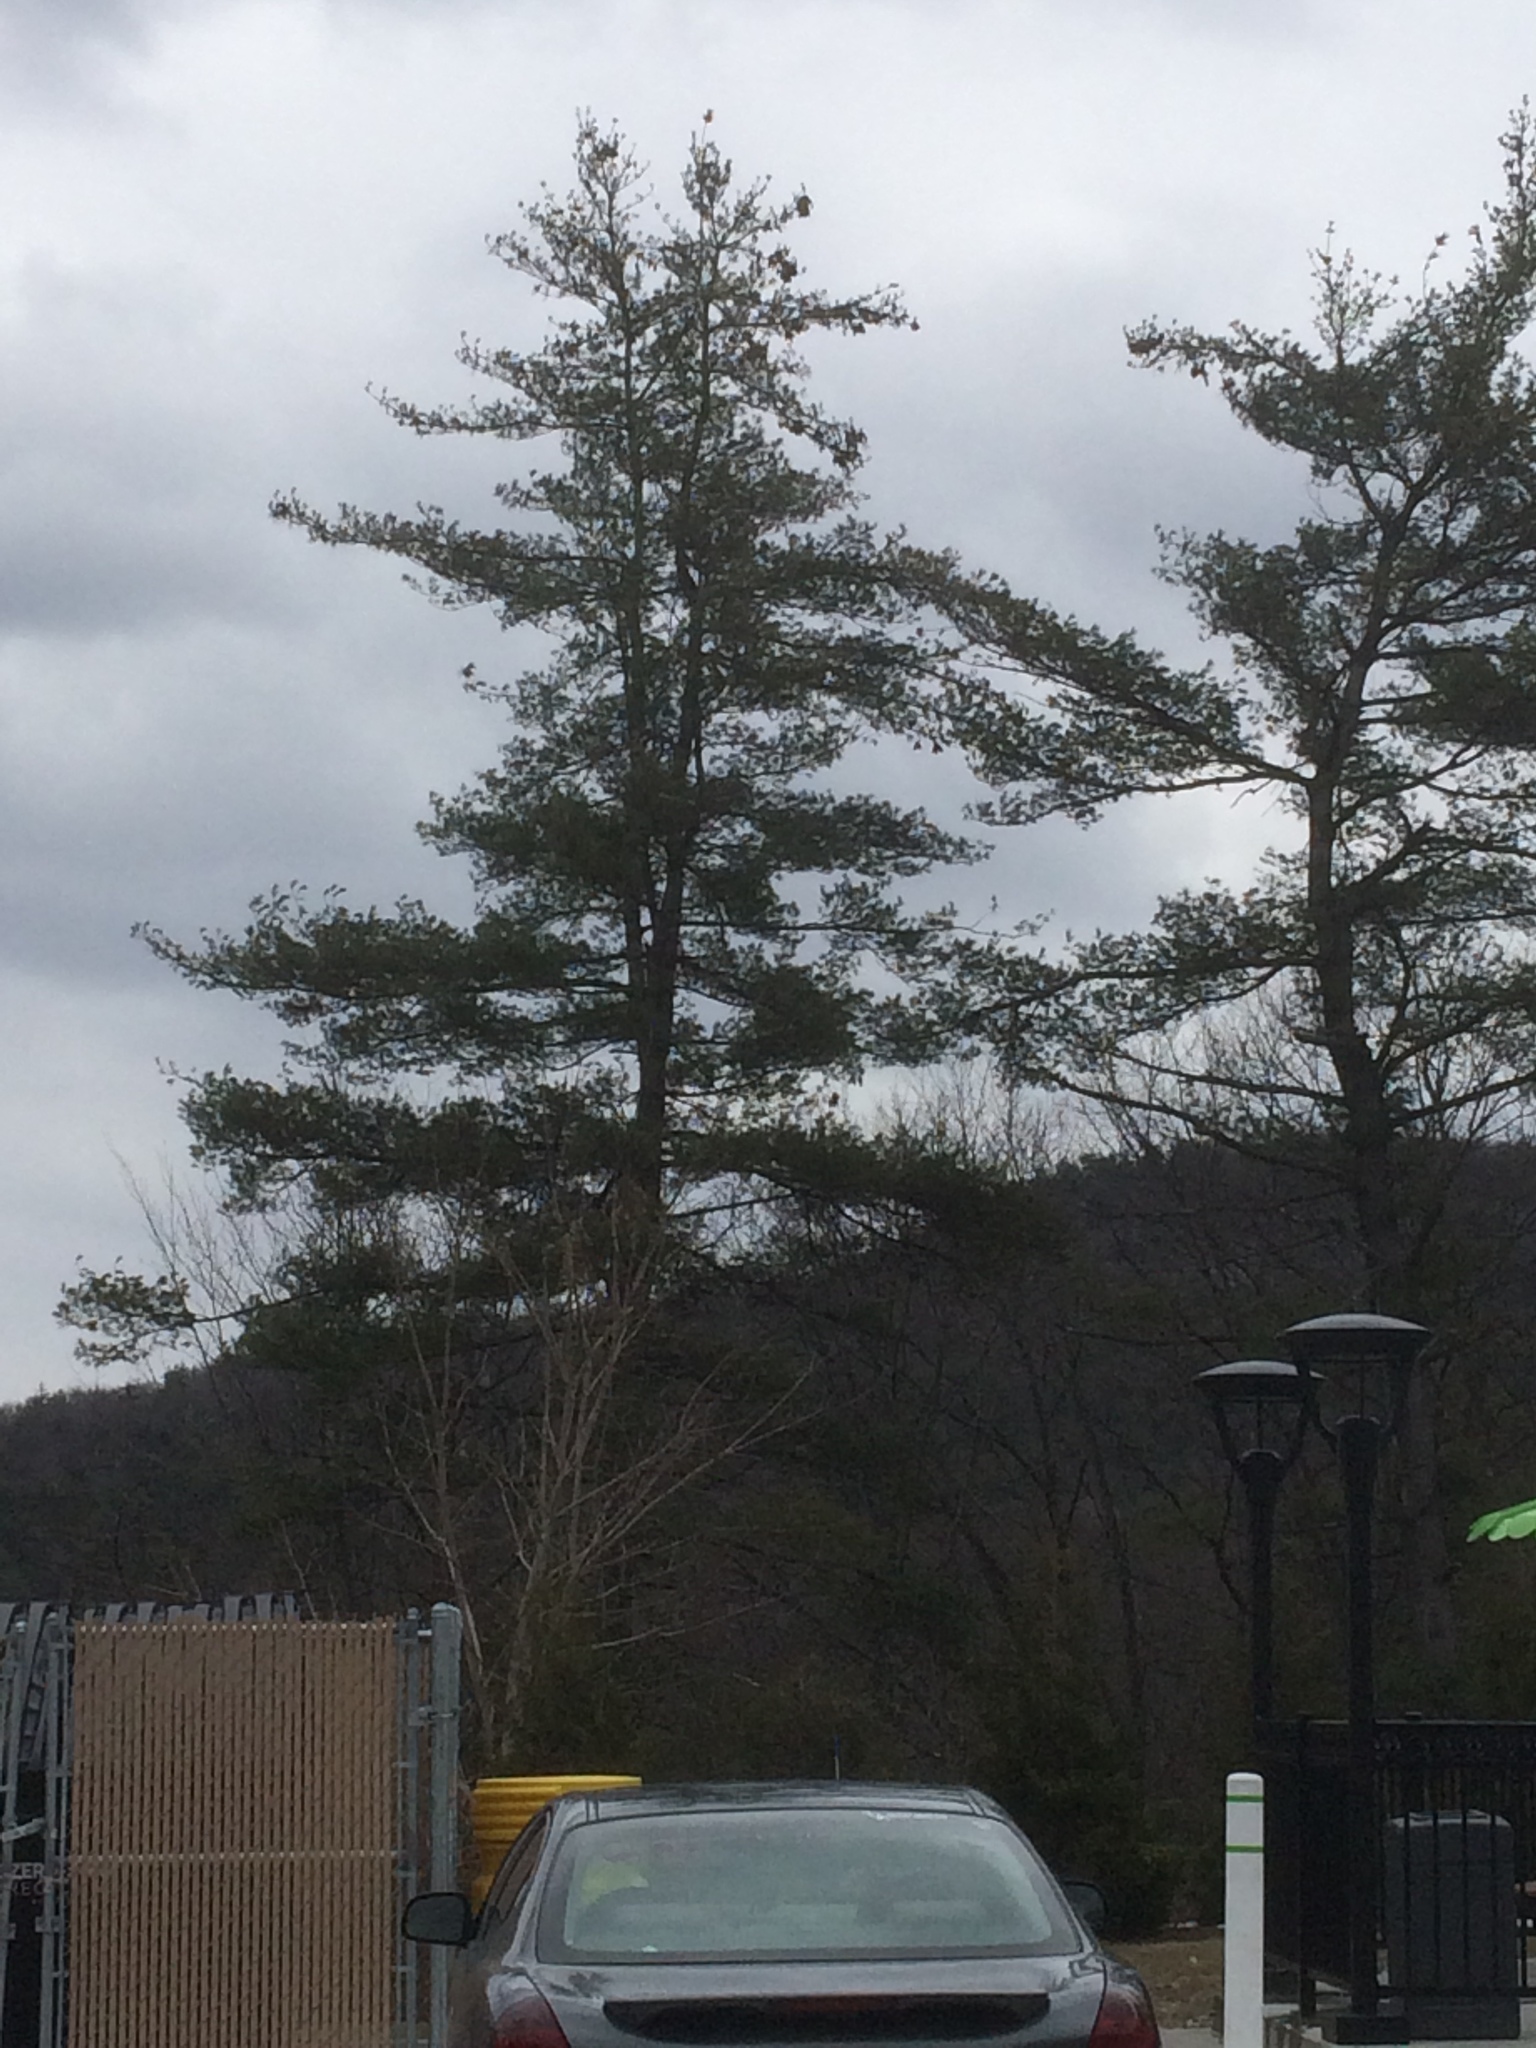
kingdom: Plantae
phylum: Tracheophyta
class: Pinopsida
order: Pinales
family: Pinaceae
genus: Pinus
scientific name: Pinus strobus
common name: Weymouth pine
